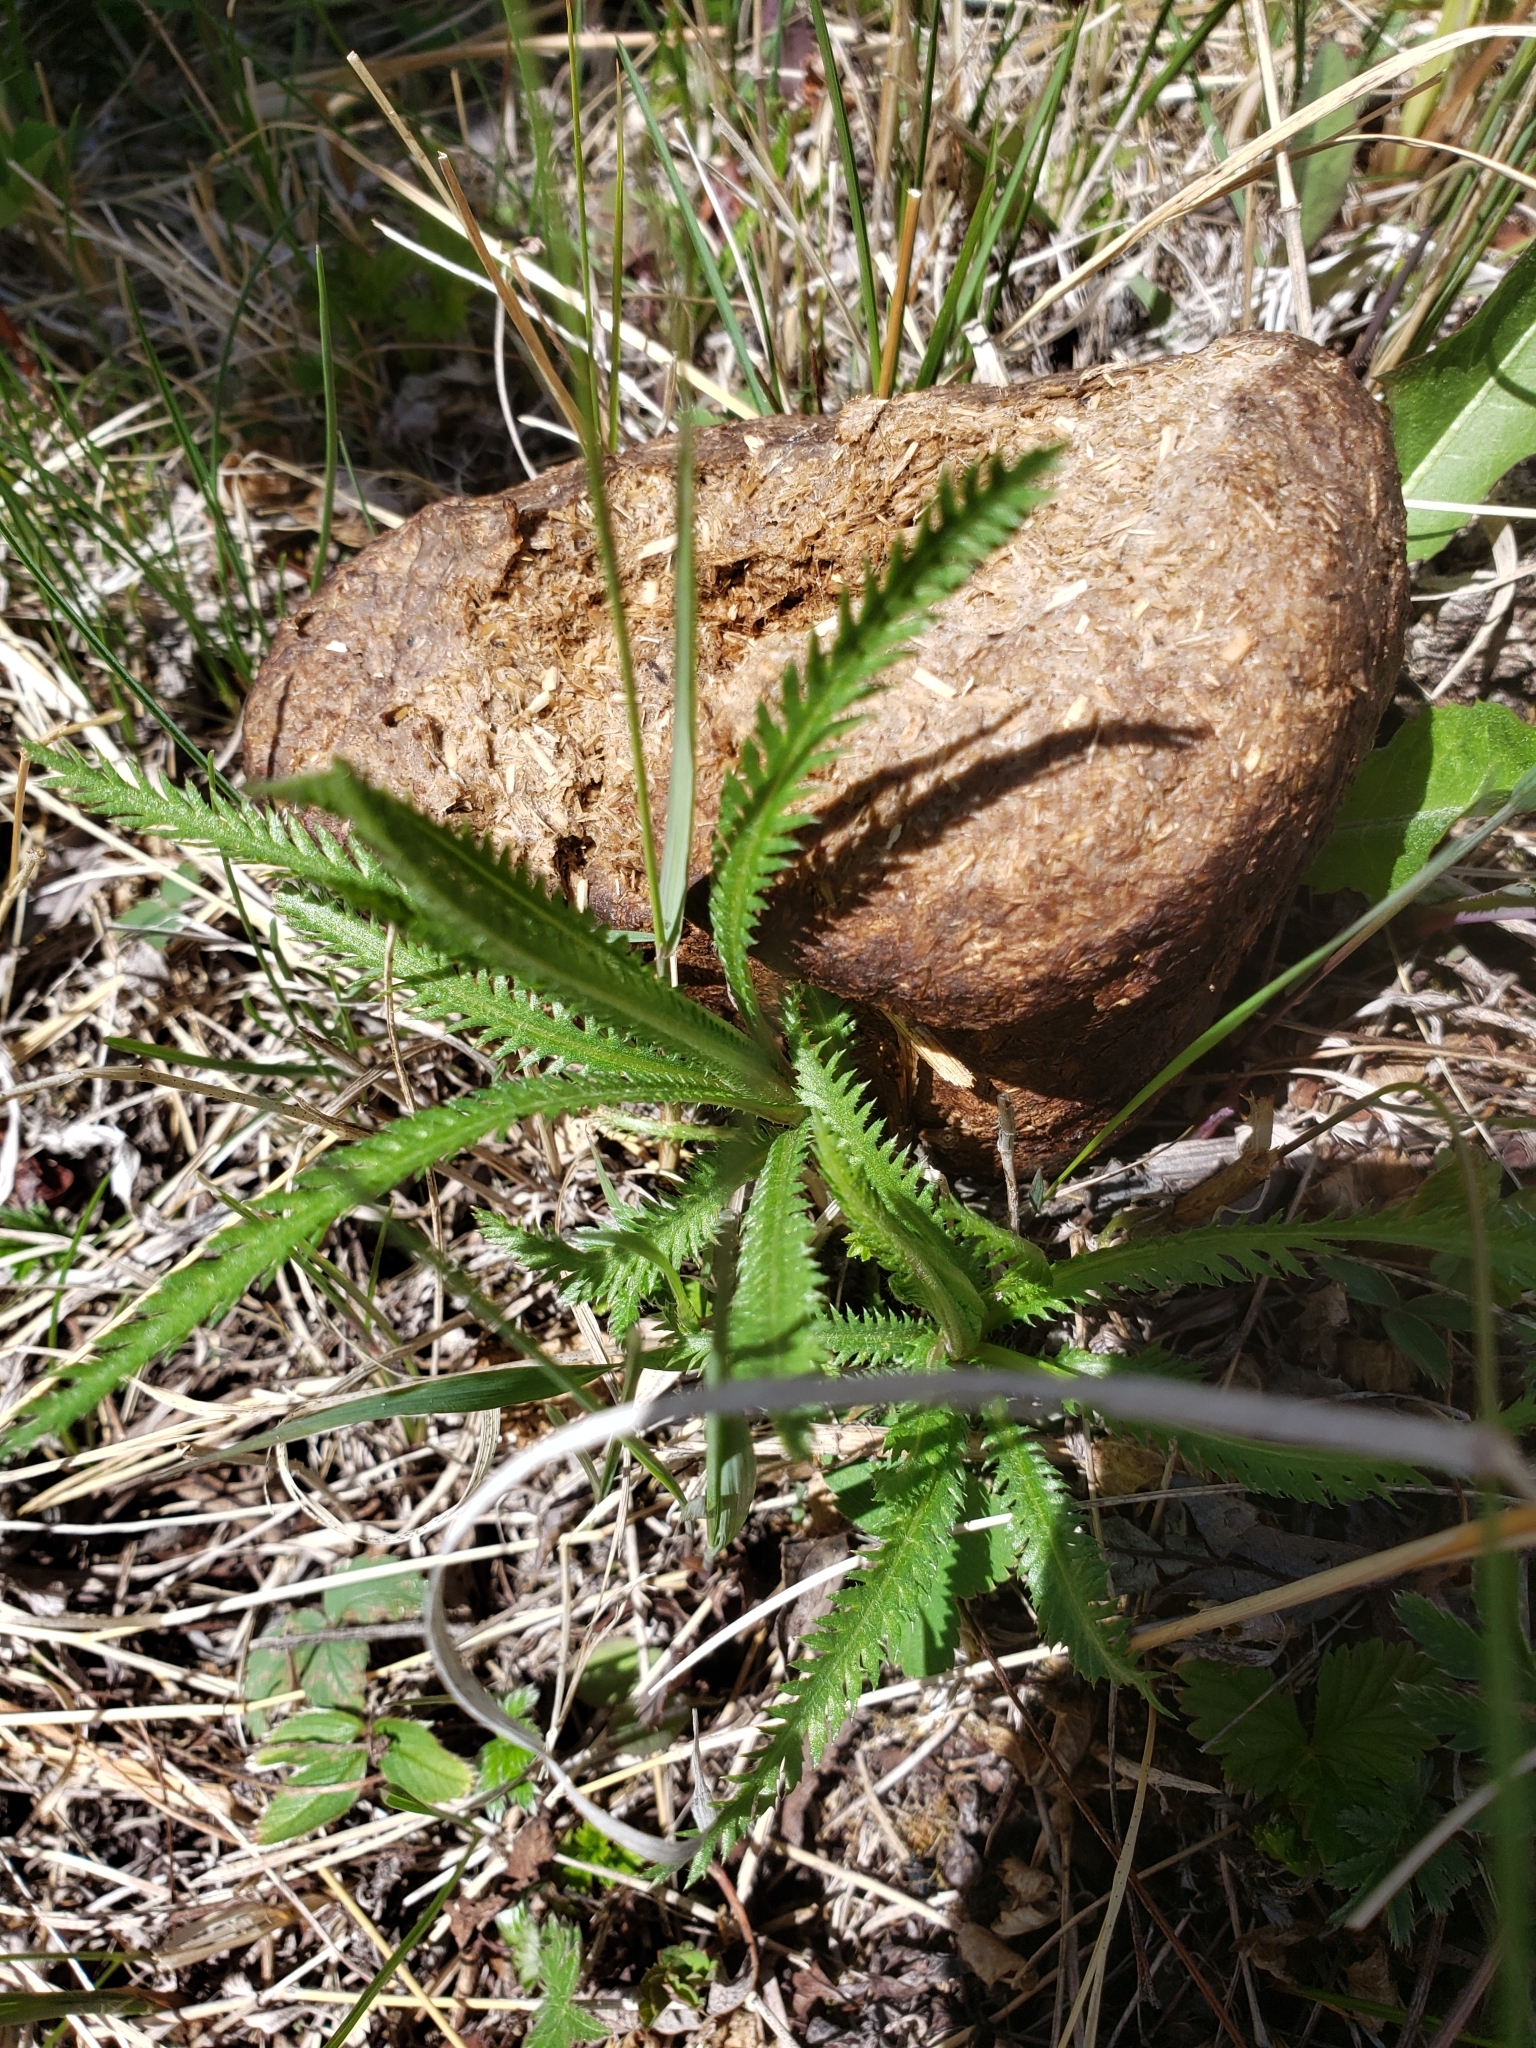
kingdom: Plantae
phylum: Tracheophyta
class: Magnoliopsida
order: Asterales
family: Asteraceae
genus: Achillea
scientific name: Achillea alpina
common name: Siberian yarrow
